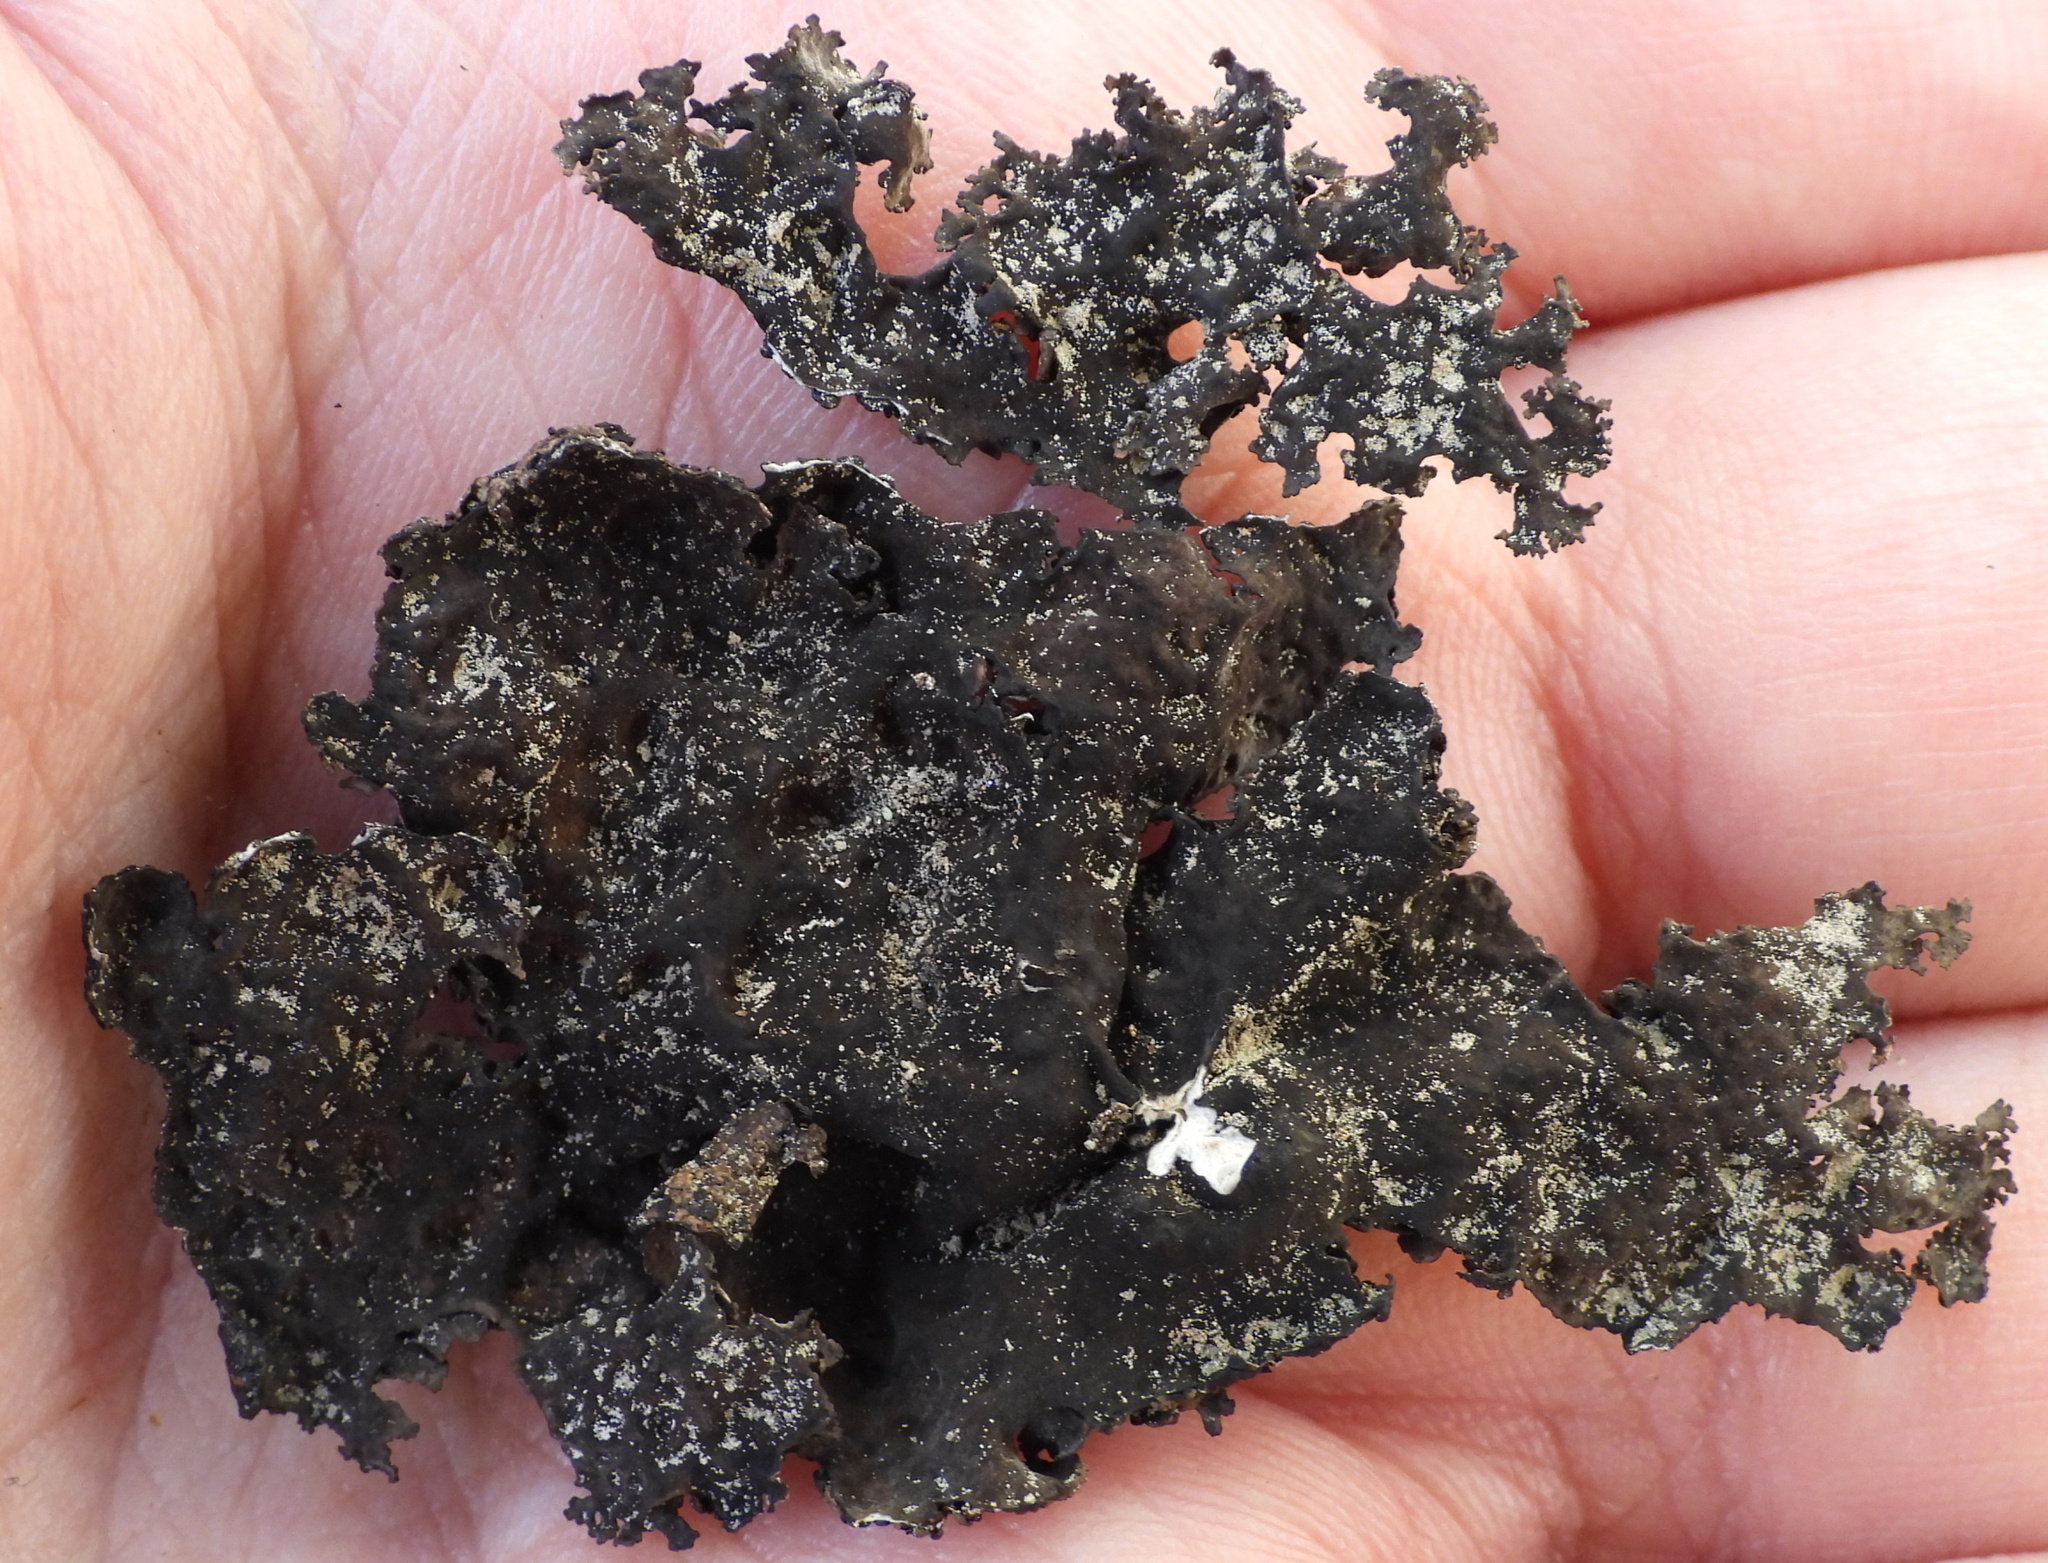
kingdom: Fungi
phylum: Ascomycota
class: Lecanoromycetes
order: Umbilicariales
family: Umbilicariaceae
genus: Umbilicaria
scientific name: Umbilicaria torrefacta
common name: Punctured rock tripe lichen
